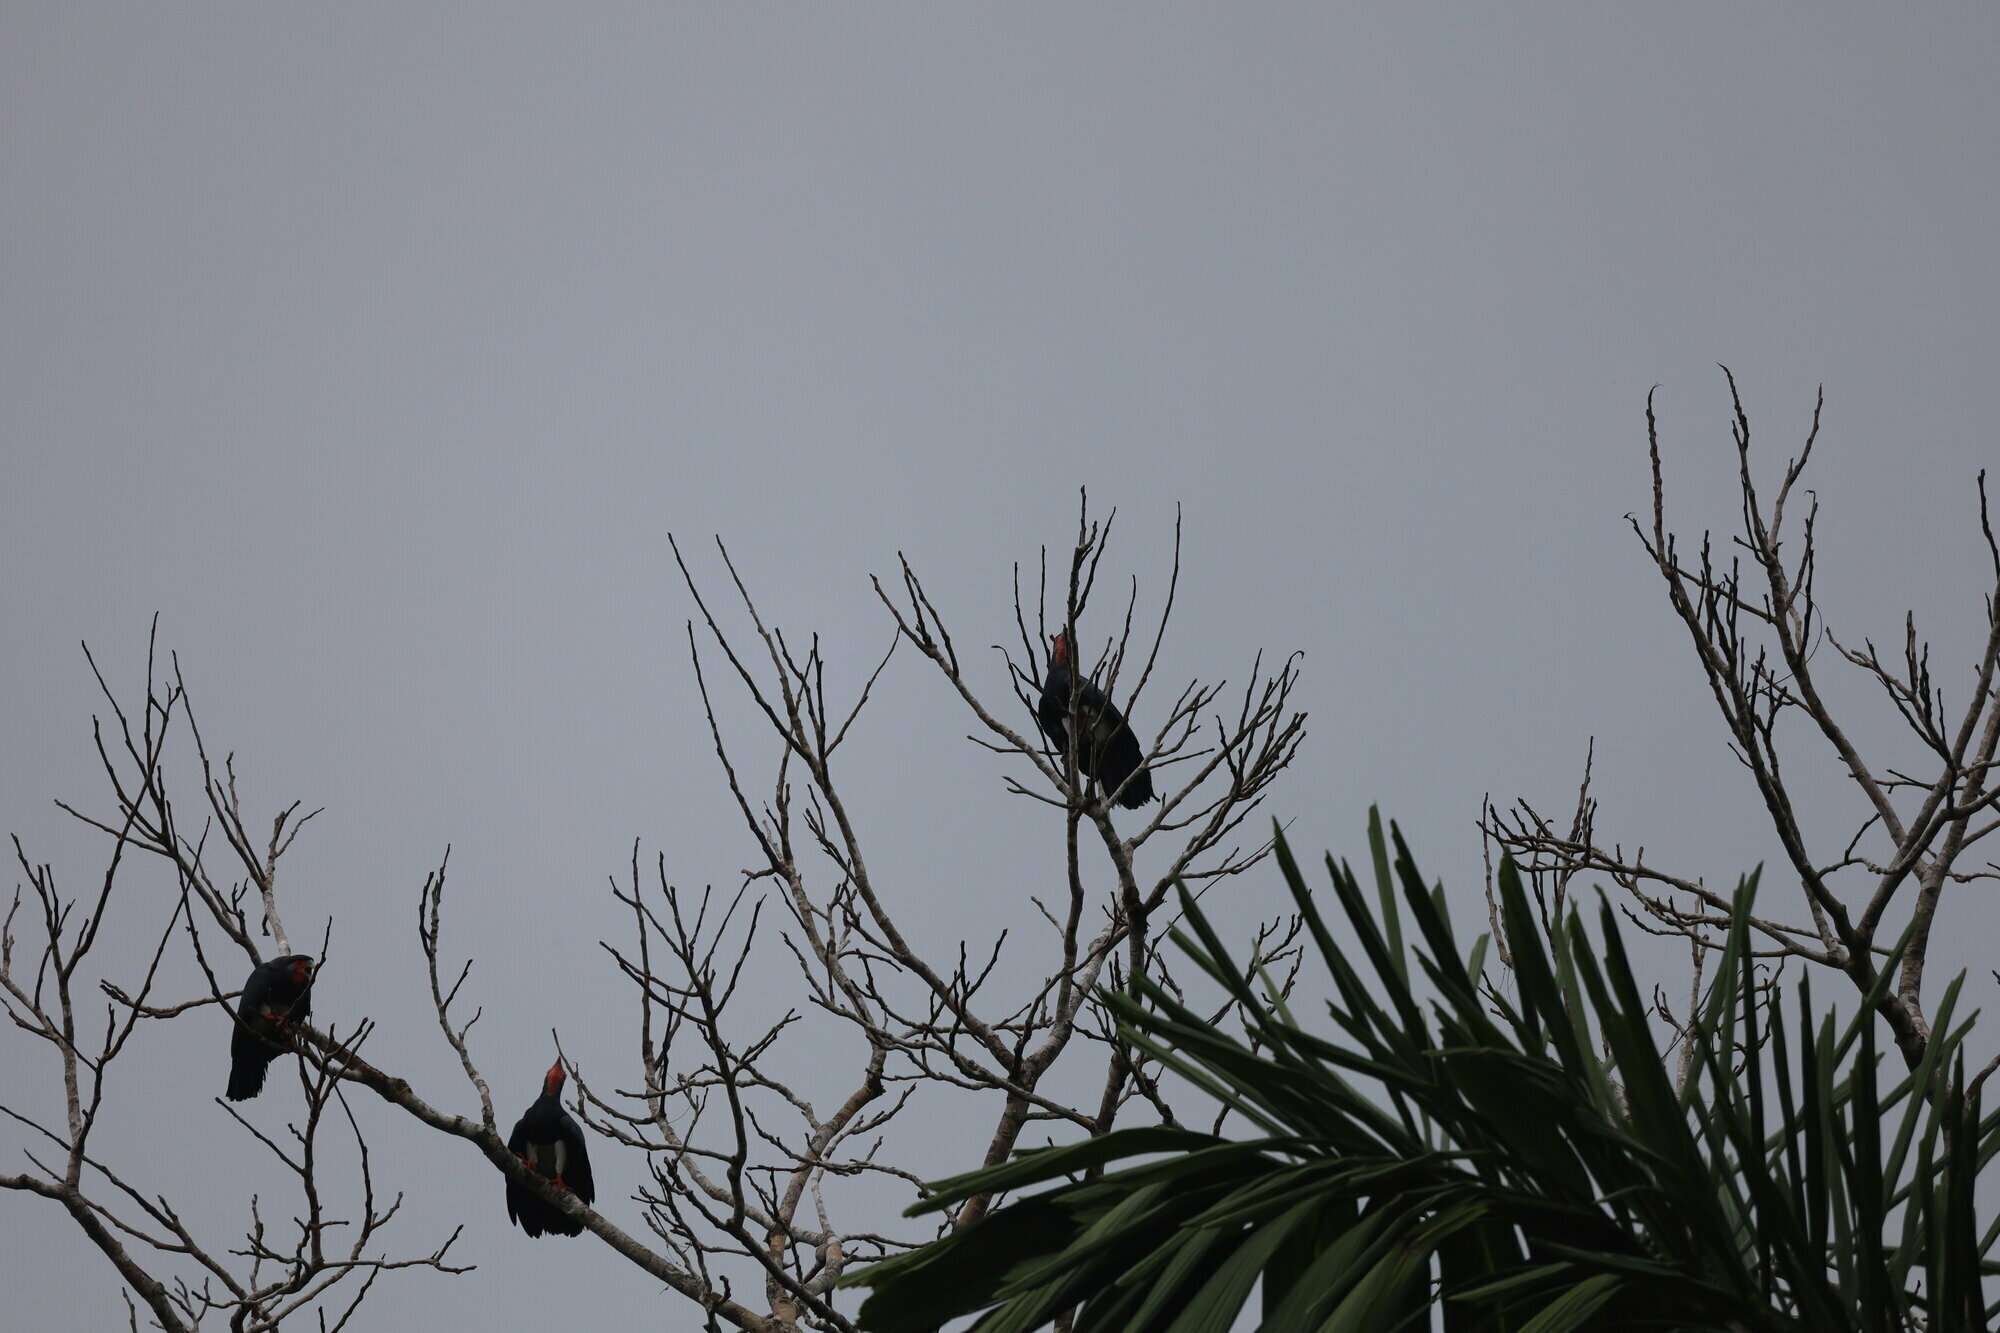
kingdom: Animalia
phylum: Chordata
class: Aves
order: Falconiformes
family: Falconidae
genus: Ibycter
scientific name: Ibycter americanus
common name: Red-throated caracara
